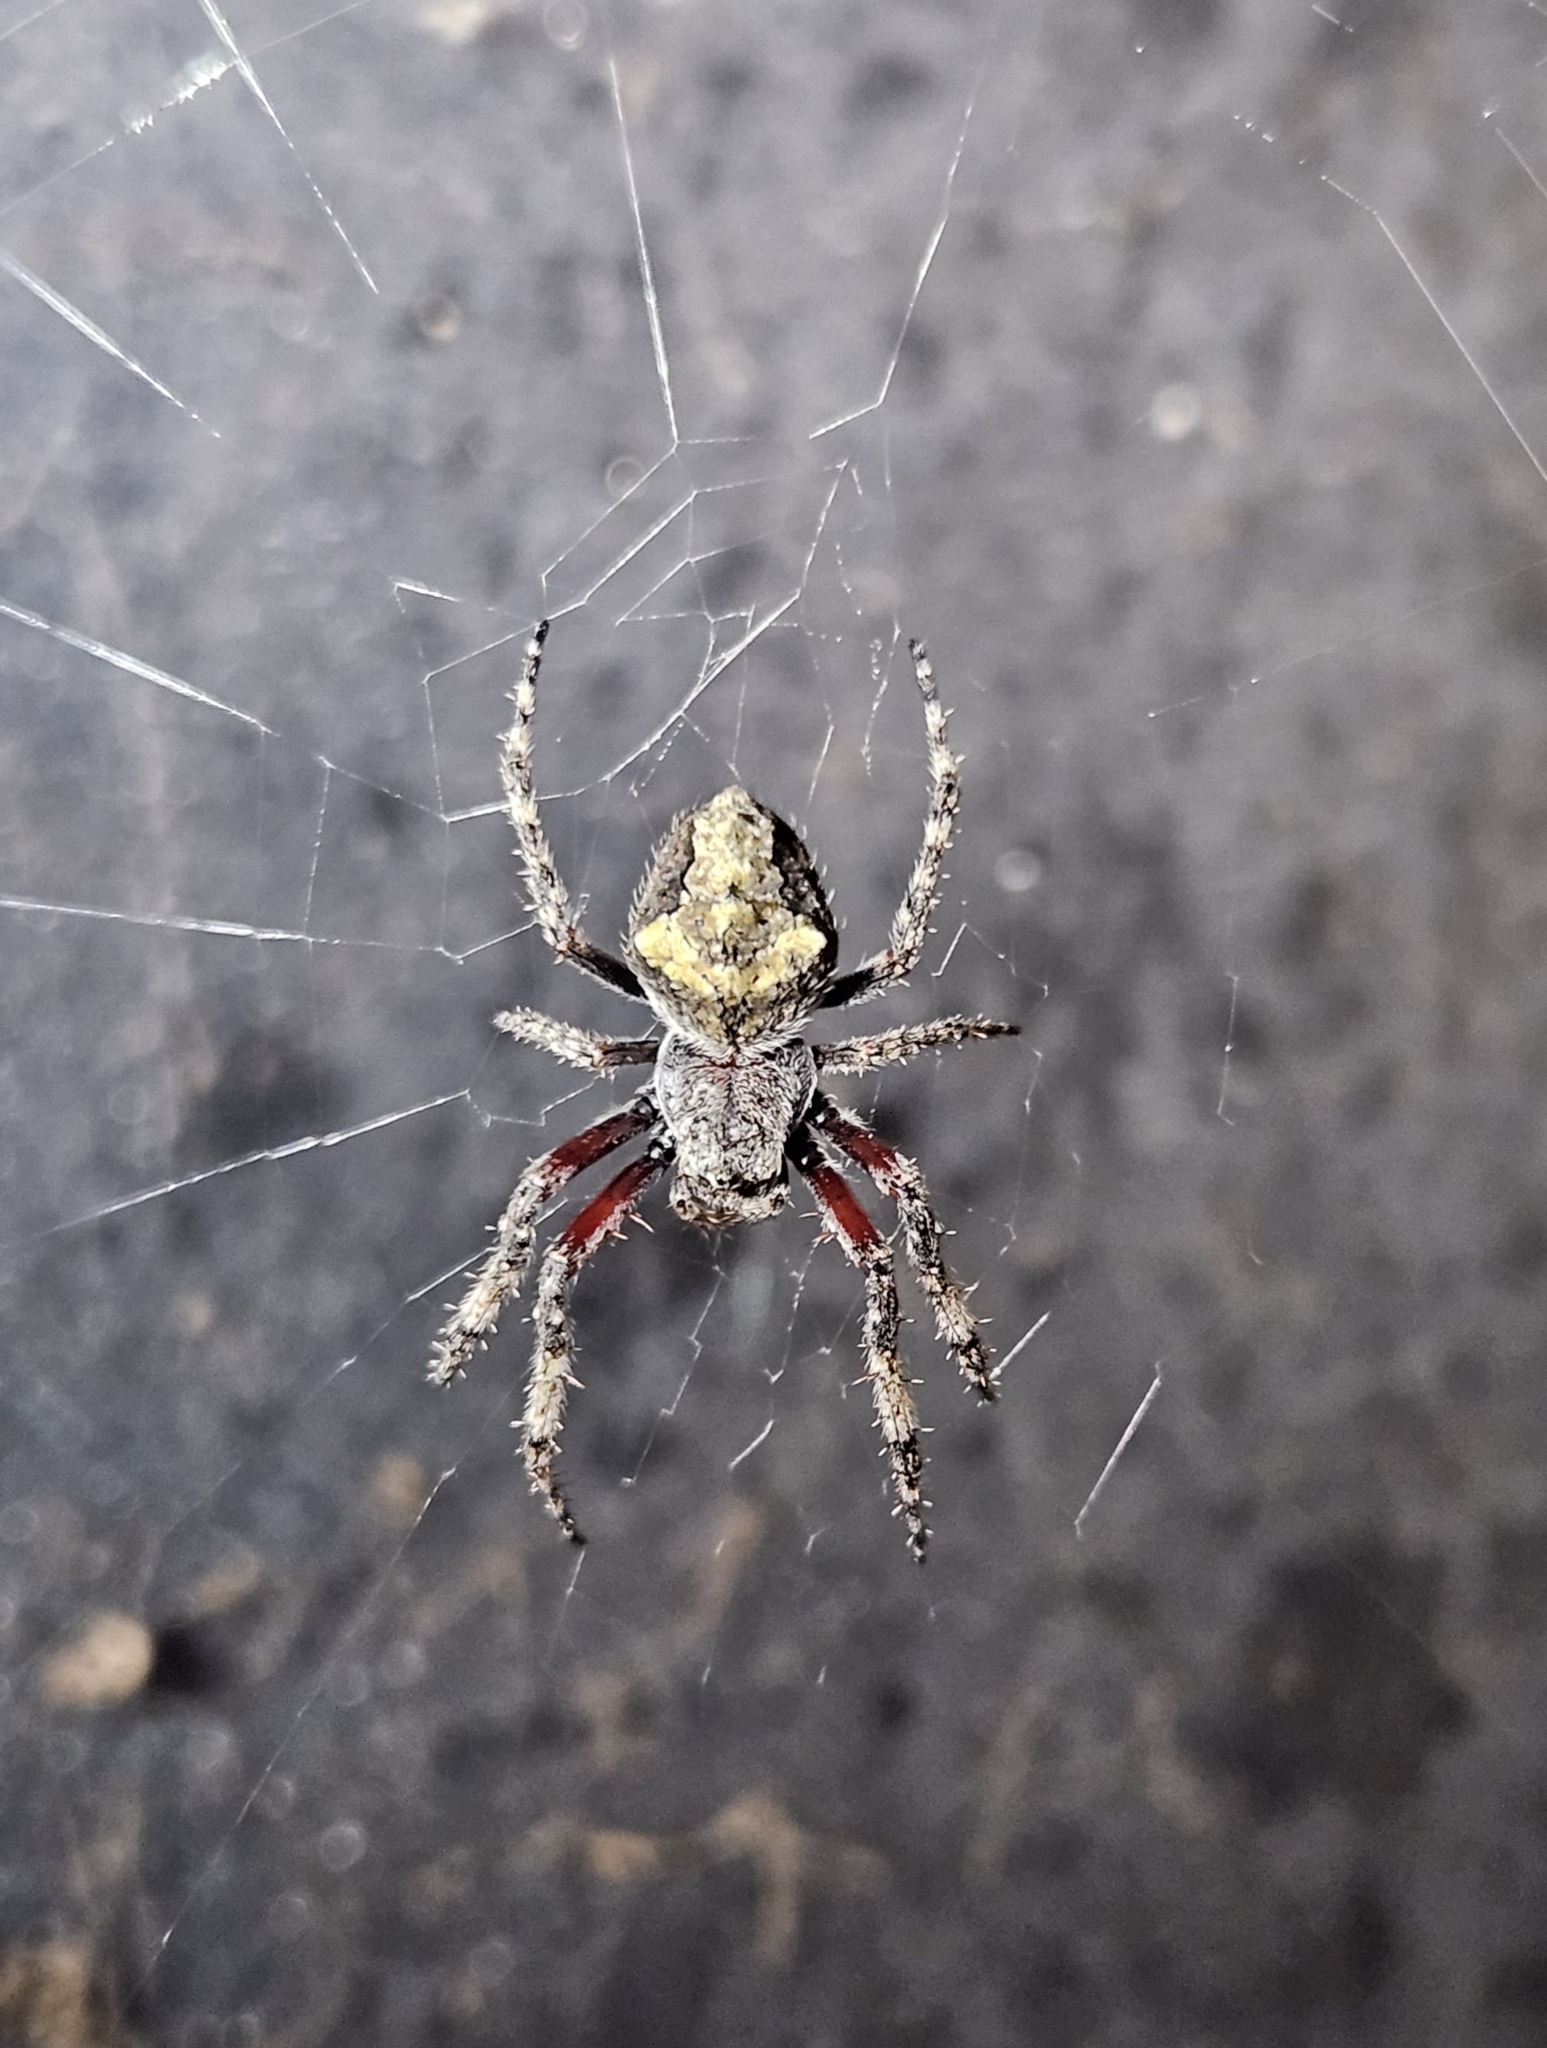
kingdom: Animalia
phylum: Arthropoda
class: Arachnida
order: Araneae
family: Araneidae
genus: Eriophora
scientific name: Eriophora pustulosa
